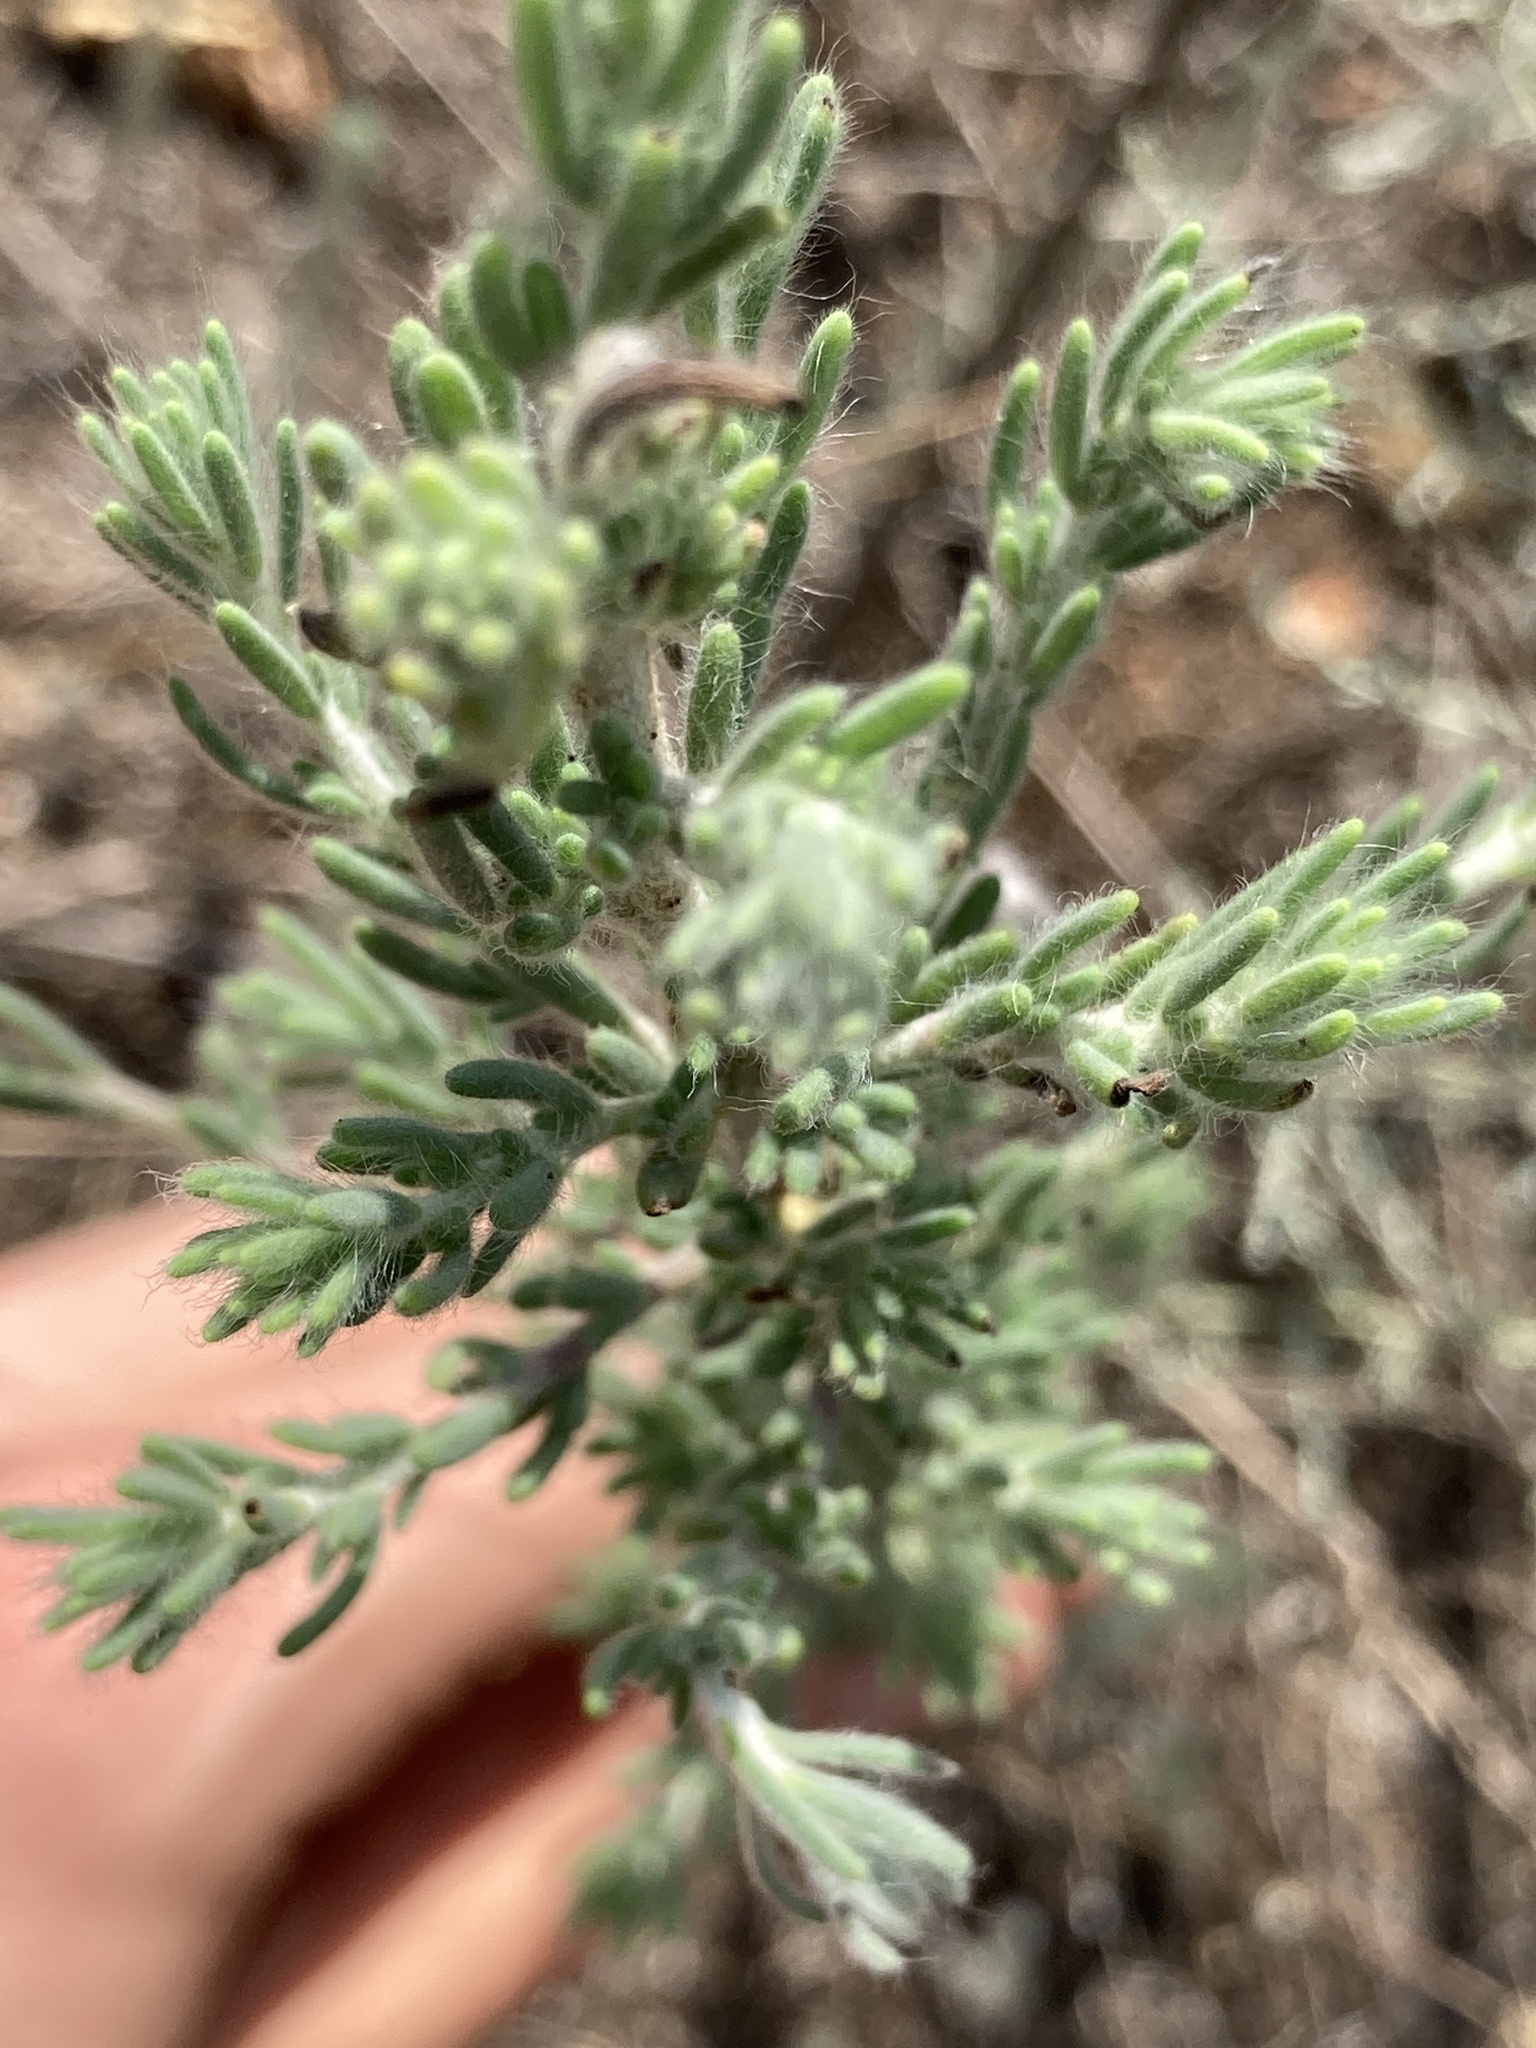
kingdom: Plantae
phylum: Tracheophyta
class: Magnoliopsida
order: Caryophyllales
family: Amaranthaceae
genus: Sedobassia
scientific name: Sedobassia sedoides
